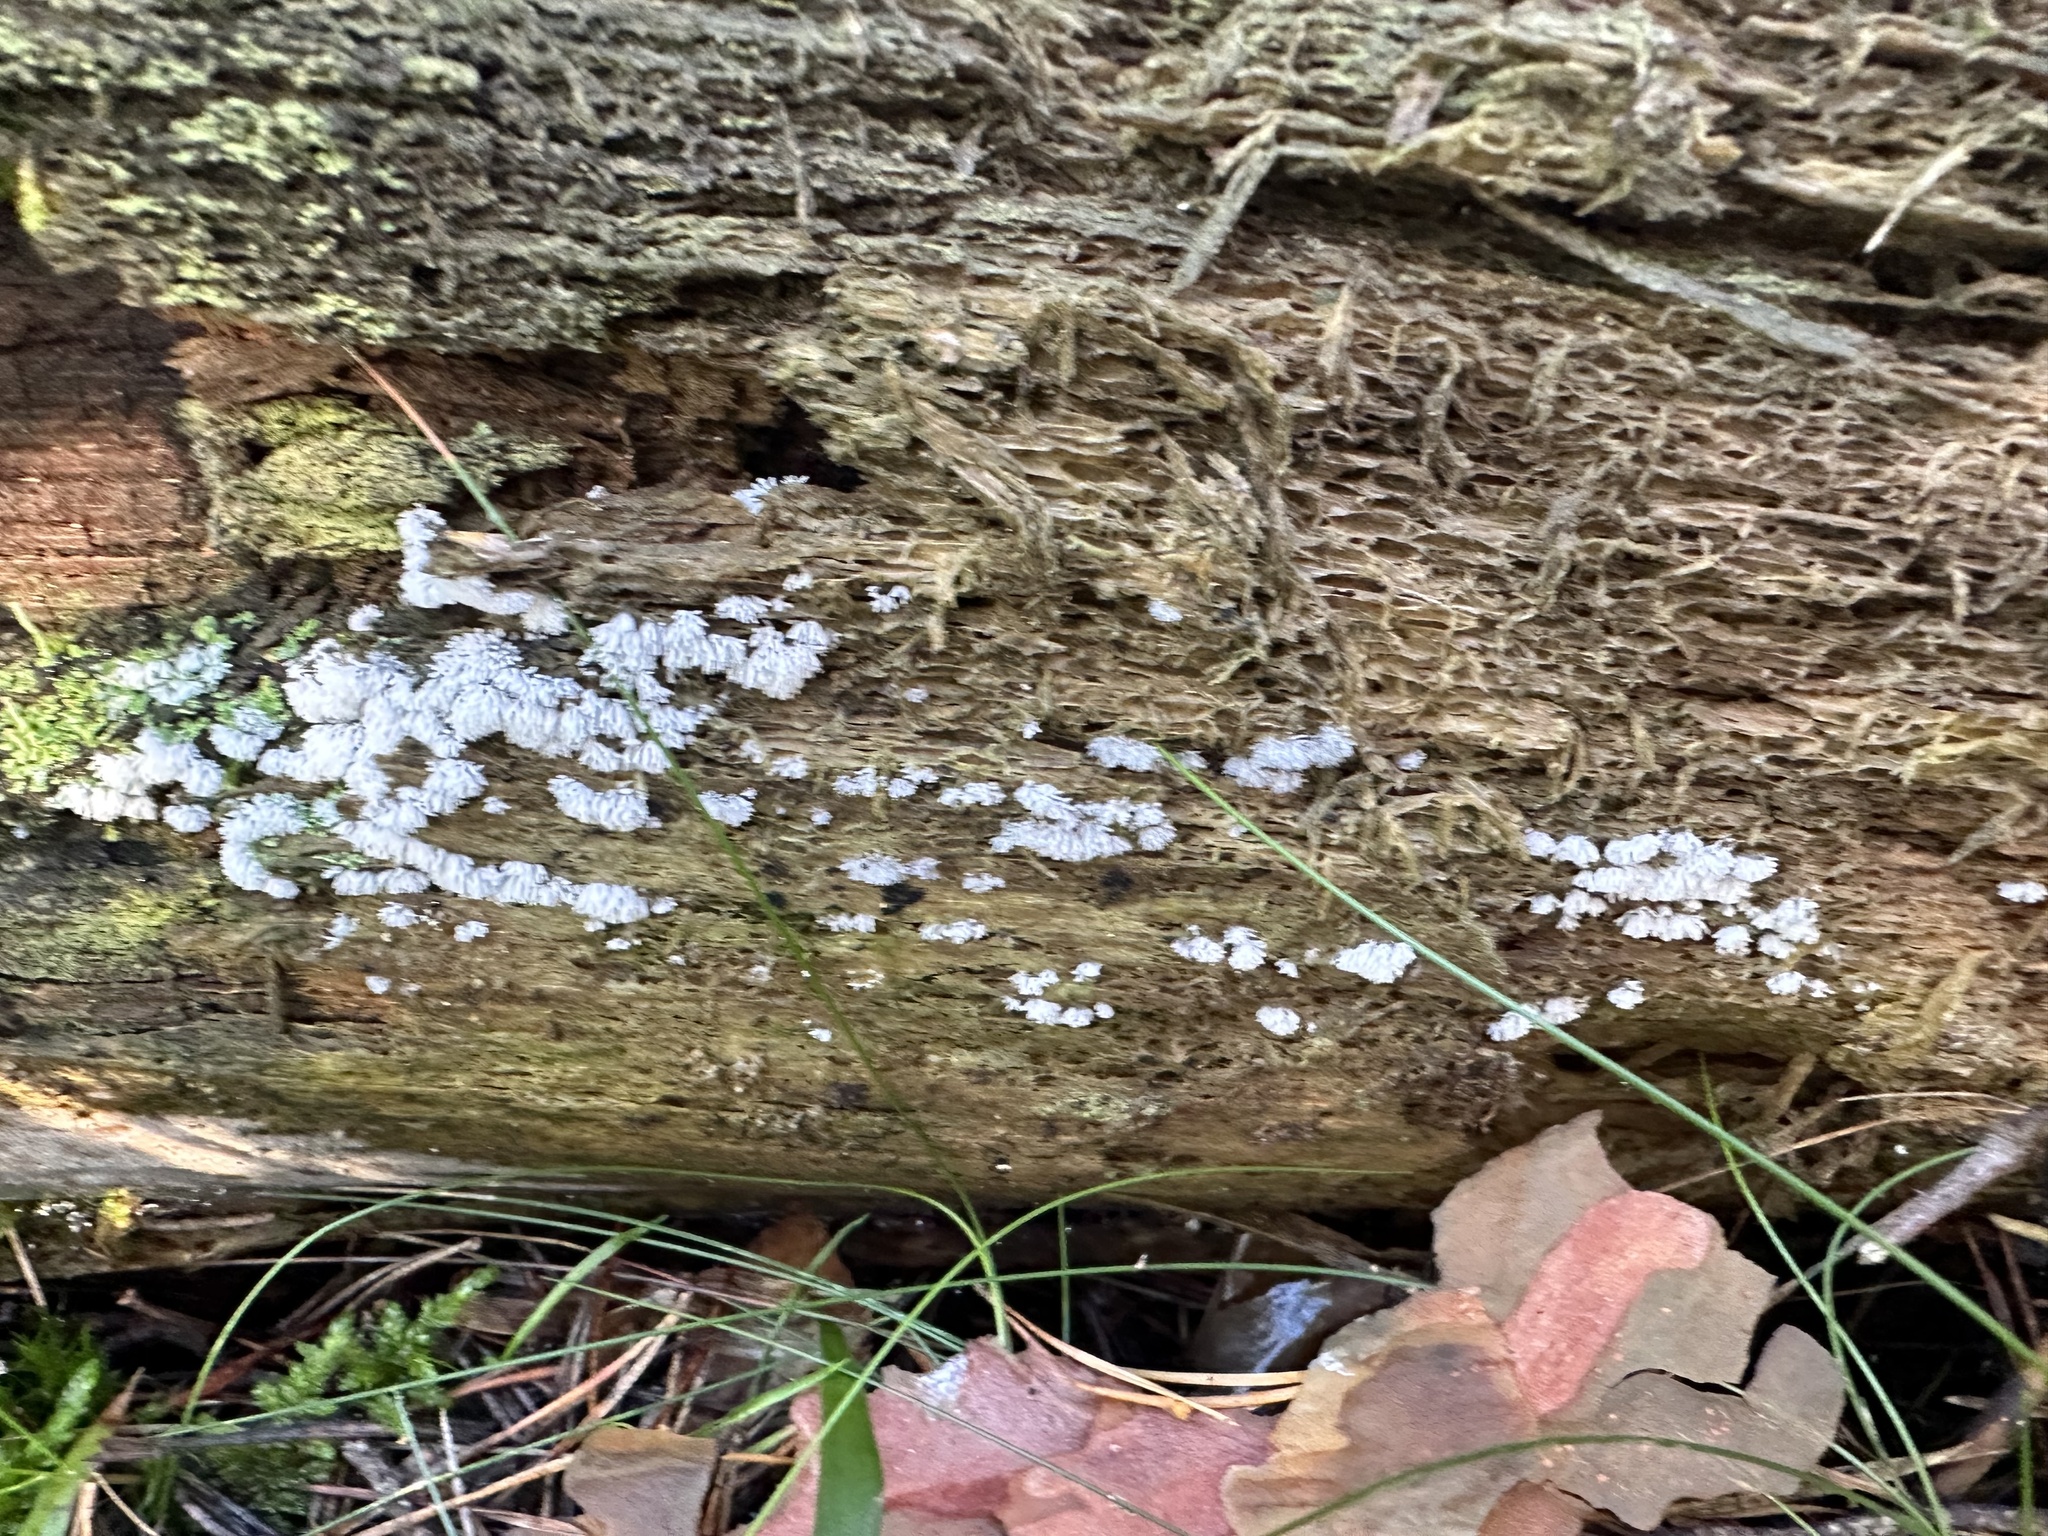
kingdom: Protozoa
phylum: Mycetozoa
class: Protosteliomycetes
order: Ceratiomyxales
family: Ceratiomyxaceae
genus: Ceratiomyxa
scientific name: Ceratiomyxa fruticulosa
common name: Honeycomb coral slime mold
